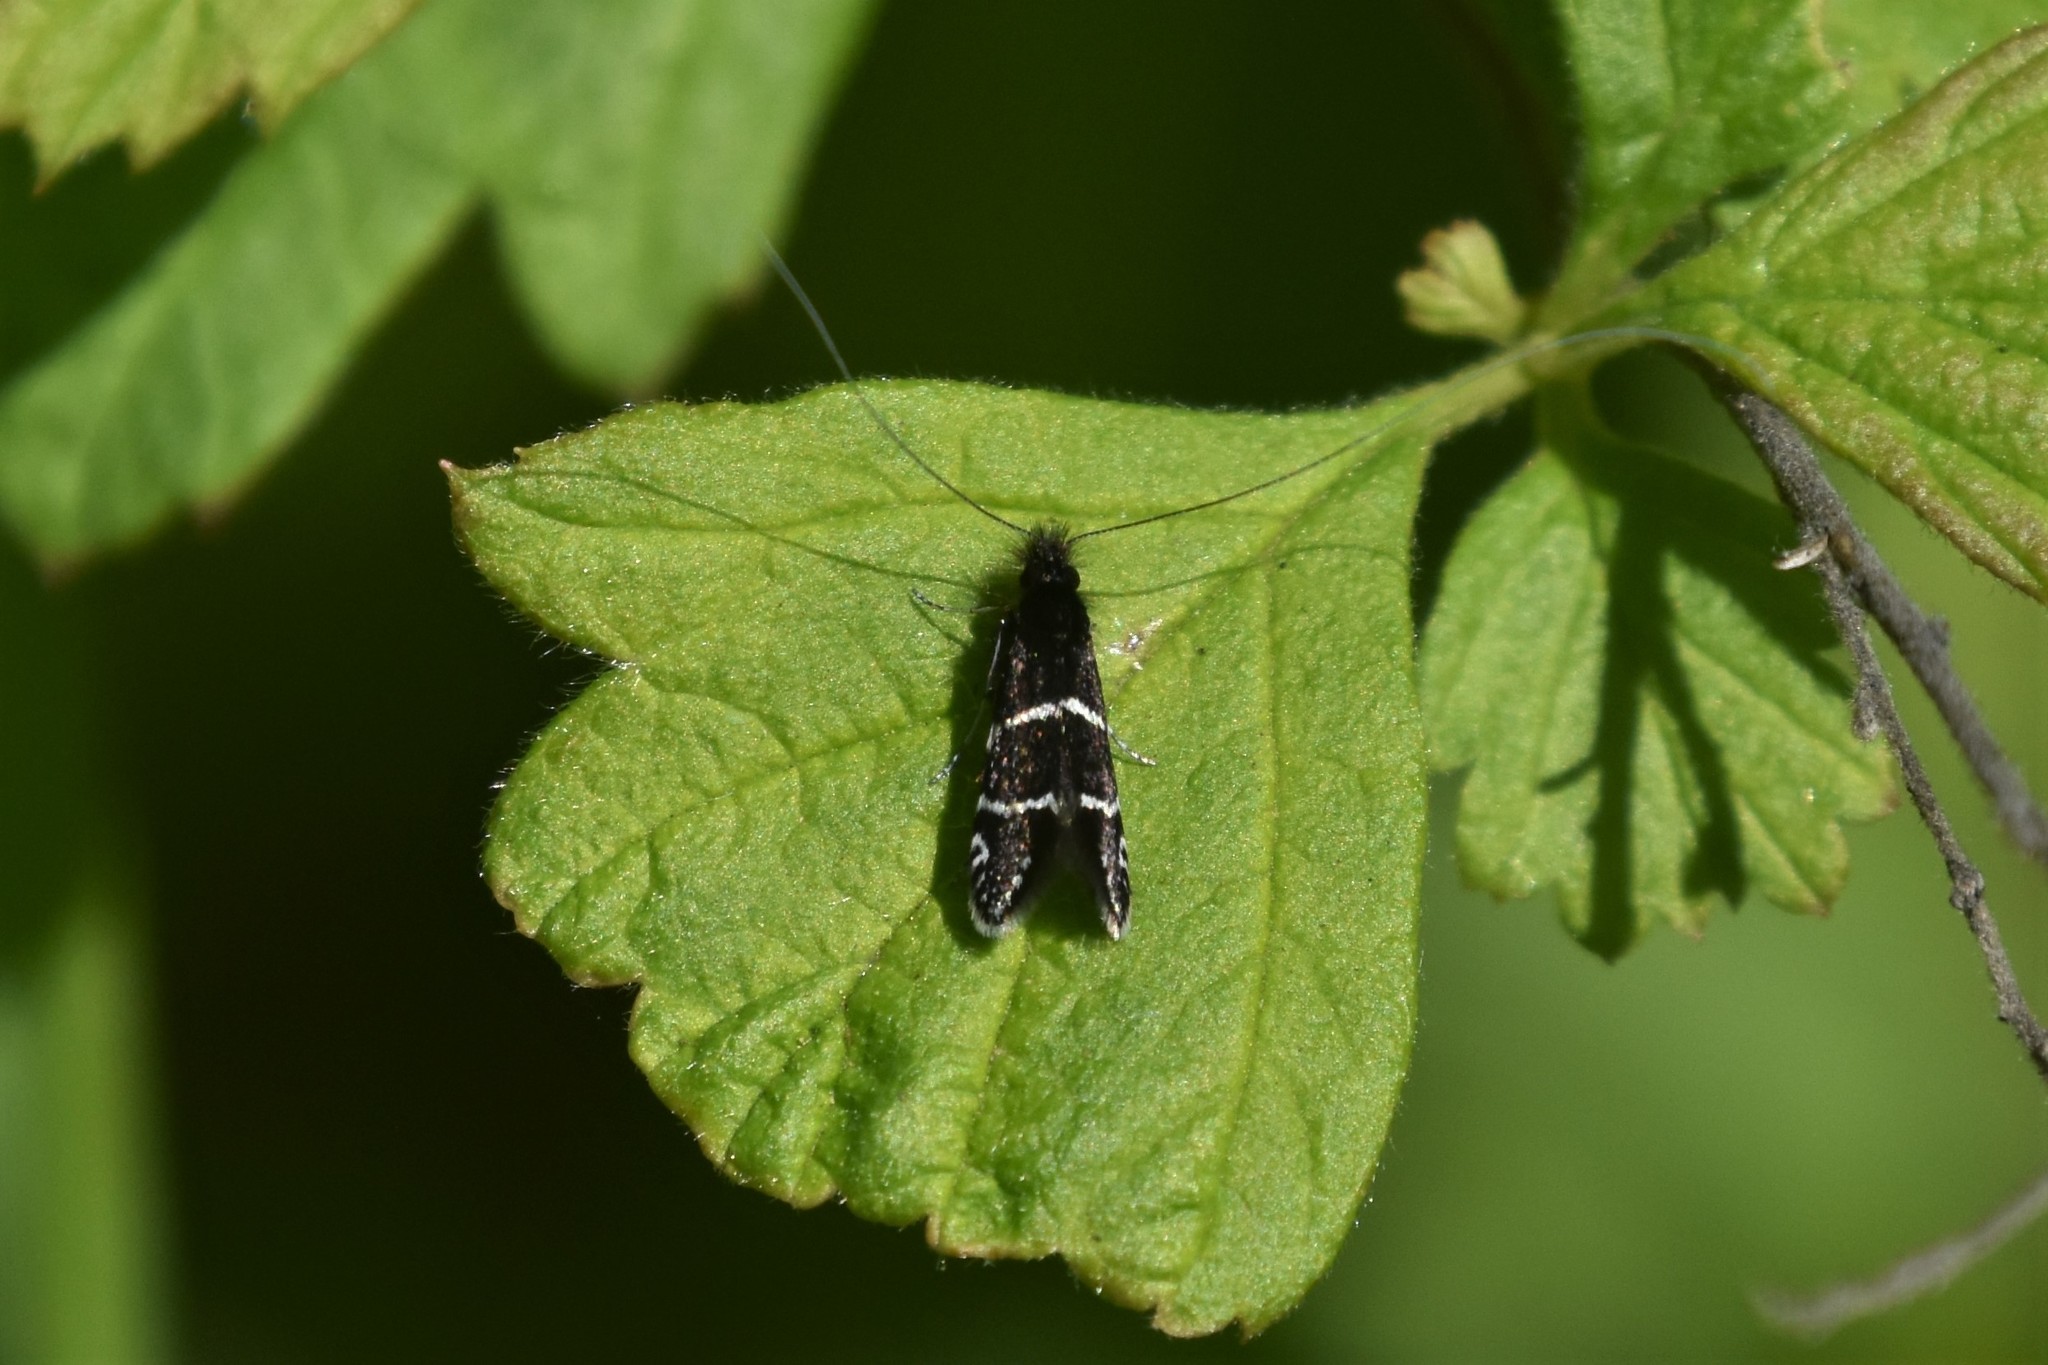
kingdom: Animalia
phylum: Arthropoda
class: Insecta
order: Lepidoptera
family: Adelidae
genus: Adela
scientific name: Adela septentrionella
